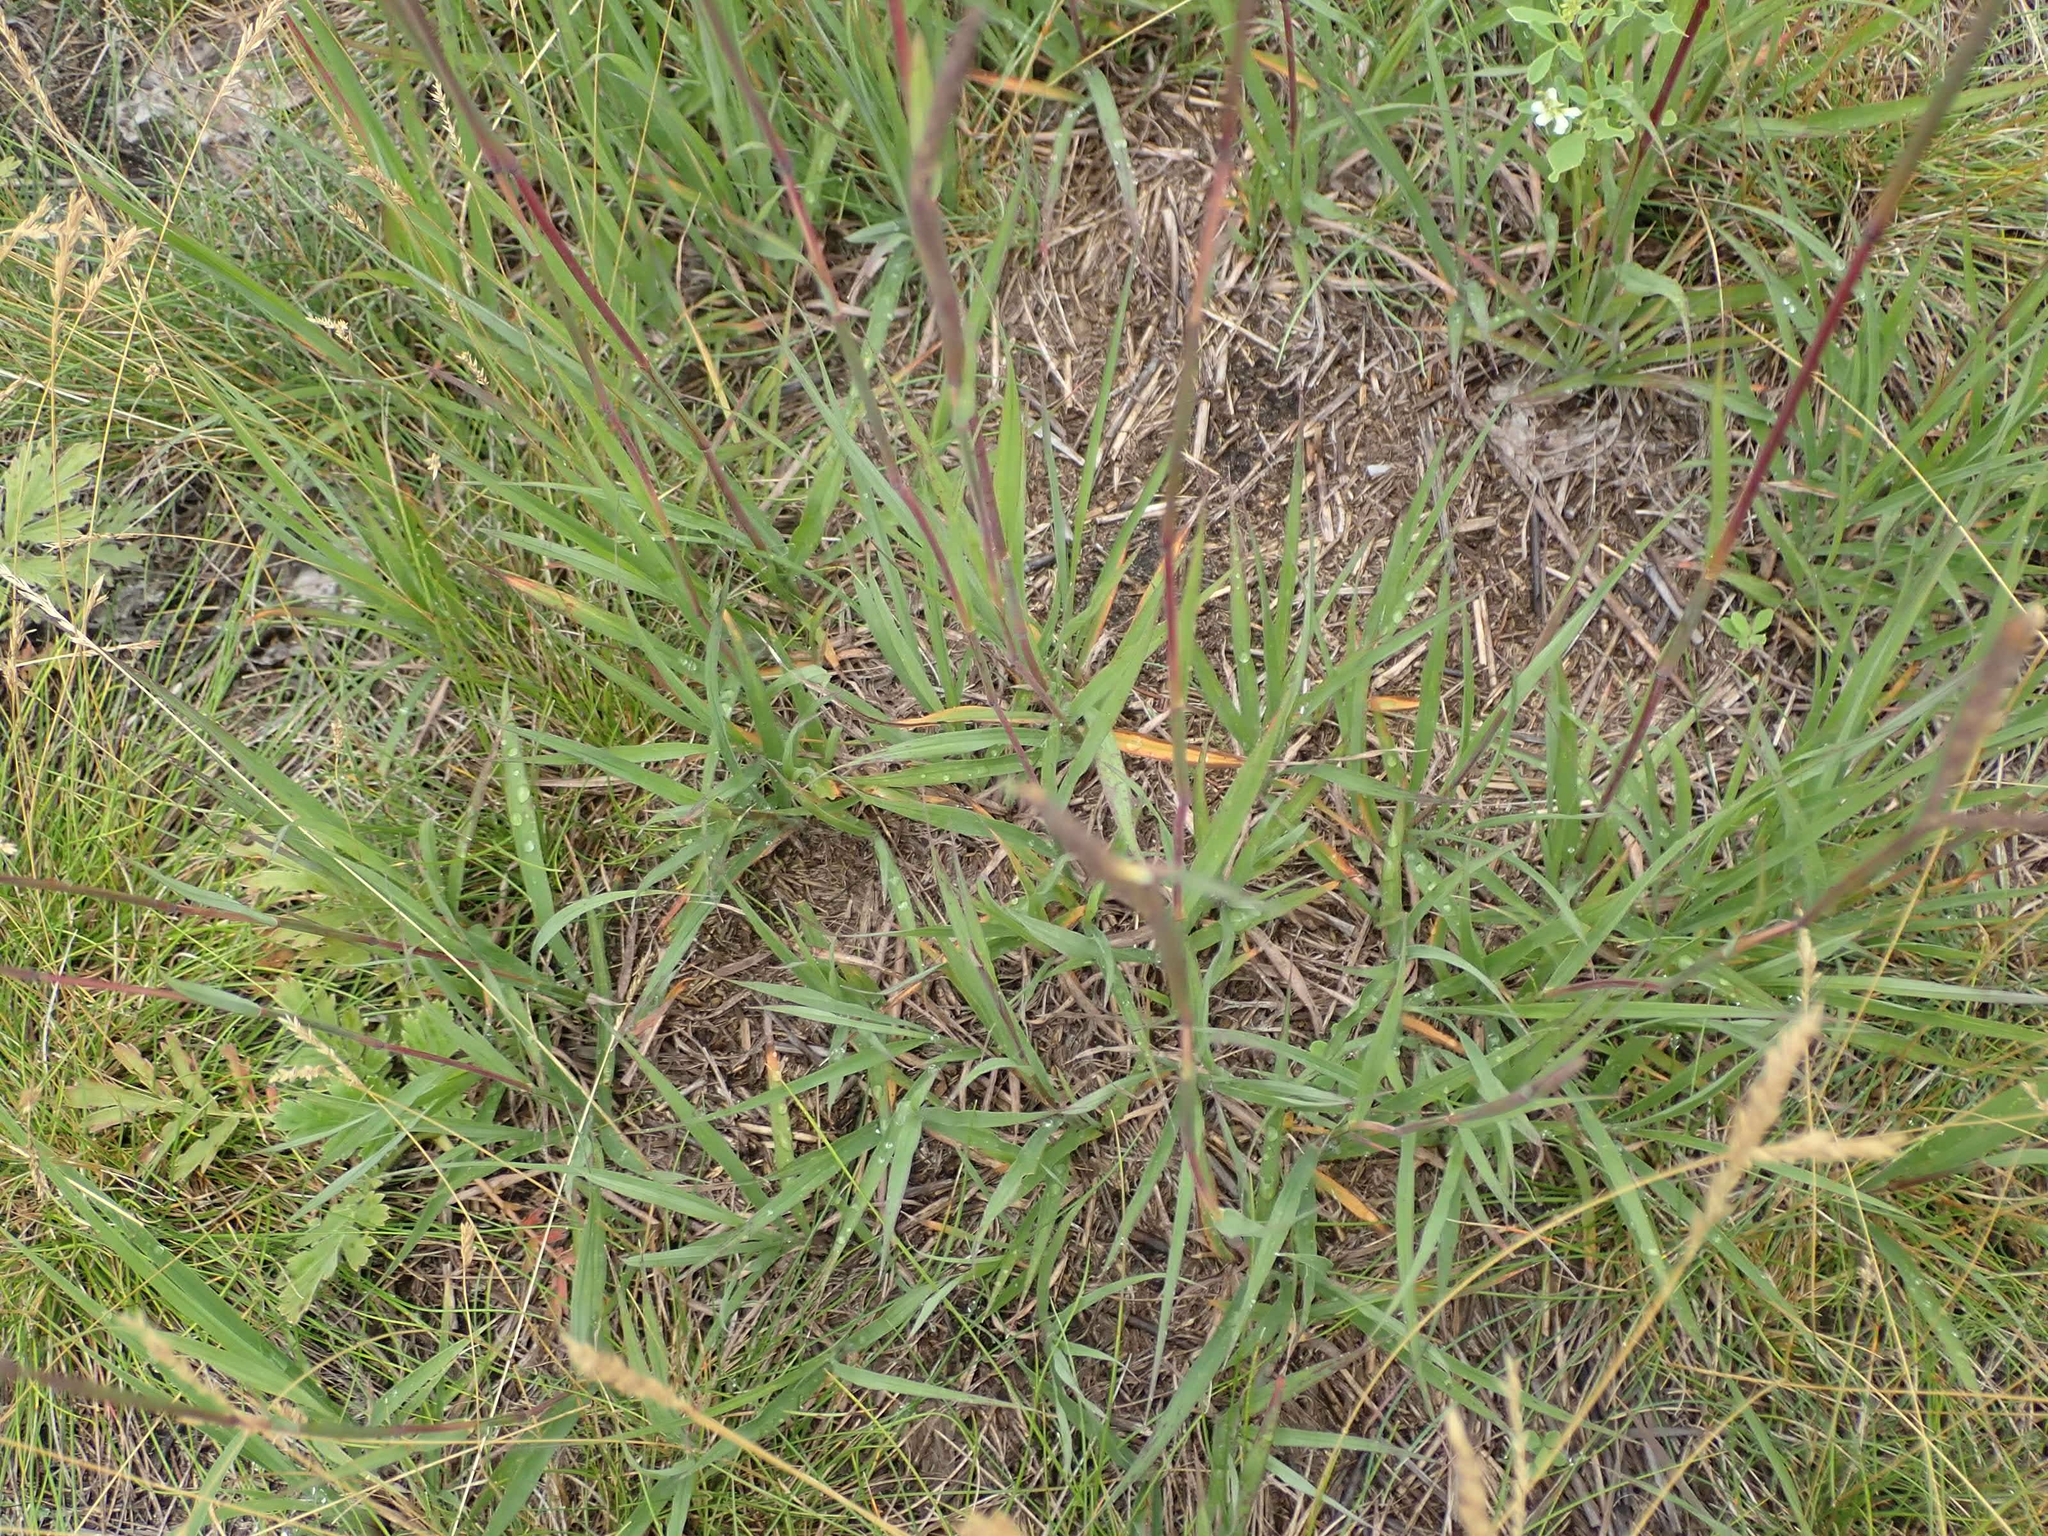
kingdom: Plantae
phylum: Tracheophyta
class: Liliopsida
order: Poales
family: Poaceae
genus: Andropogon
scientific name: Andropogon gerardi
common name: Big bluestem
